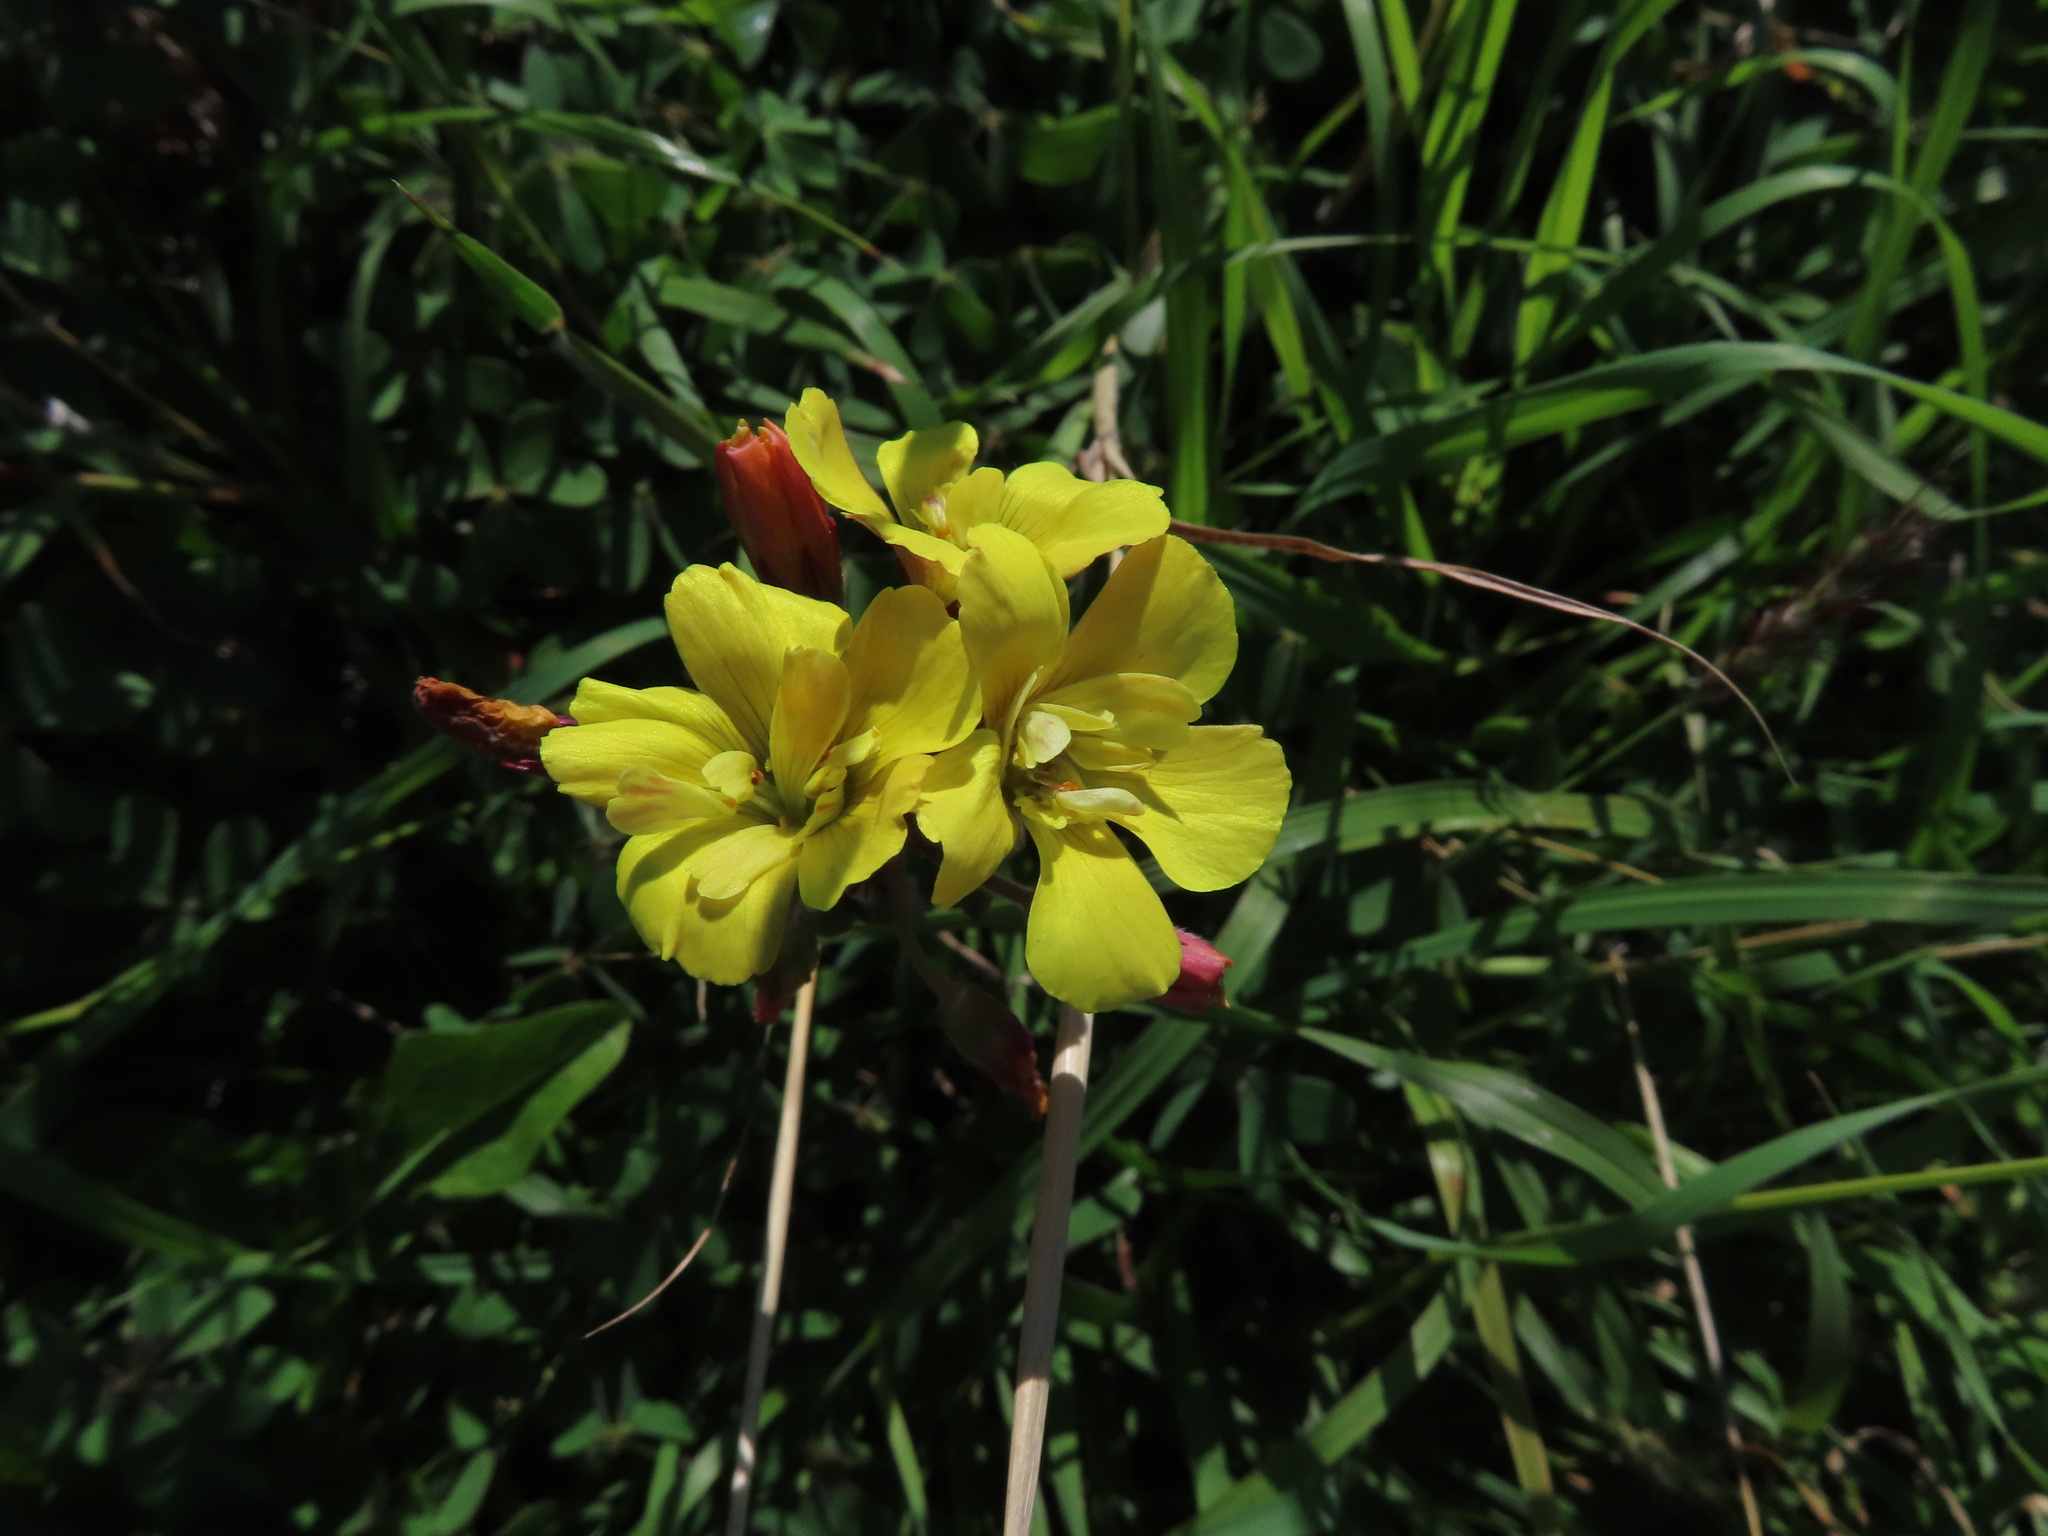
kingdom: Plantae
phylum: Tracheophyta
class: Magnoliopsida
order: Oxalidales
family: Oxalidaceae
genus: Oxalis
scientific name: Oxalis pes-caprae
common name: Bermuda-buttercup
